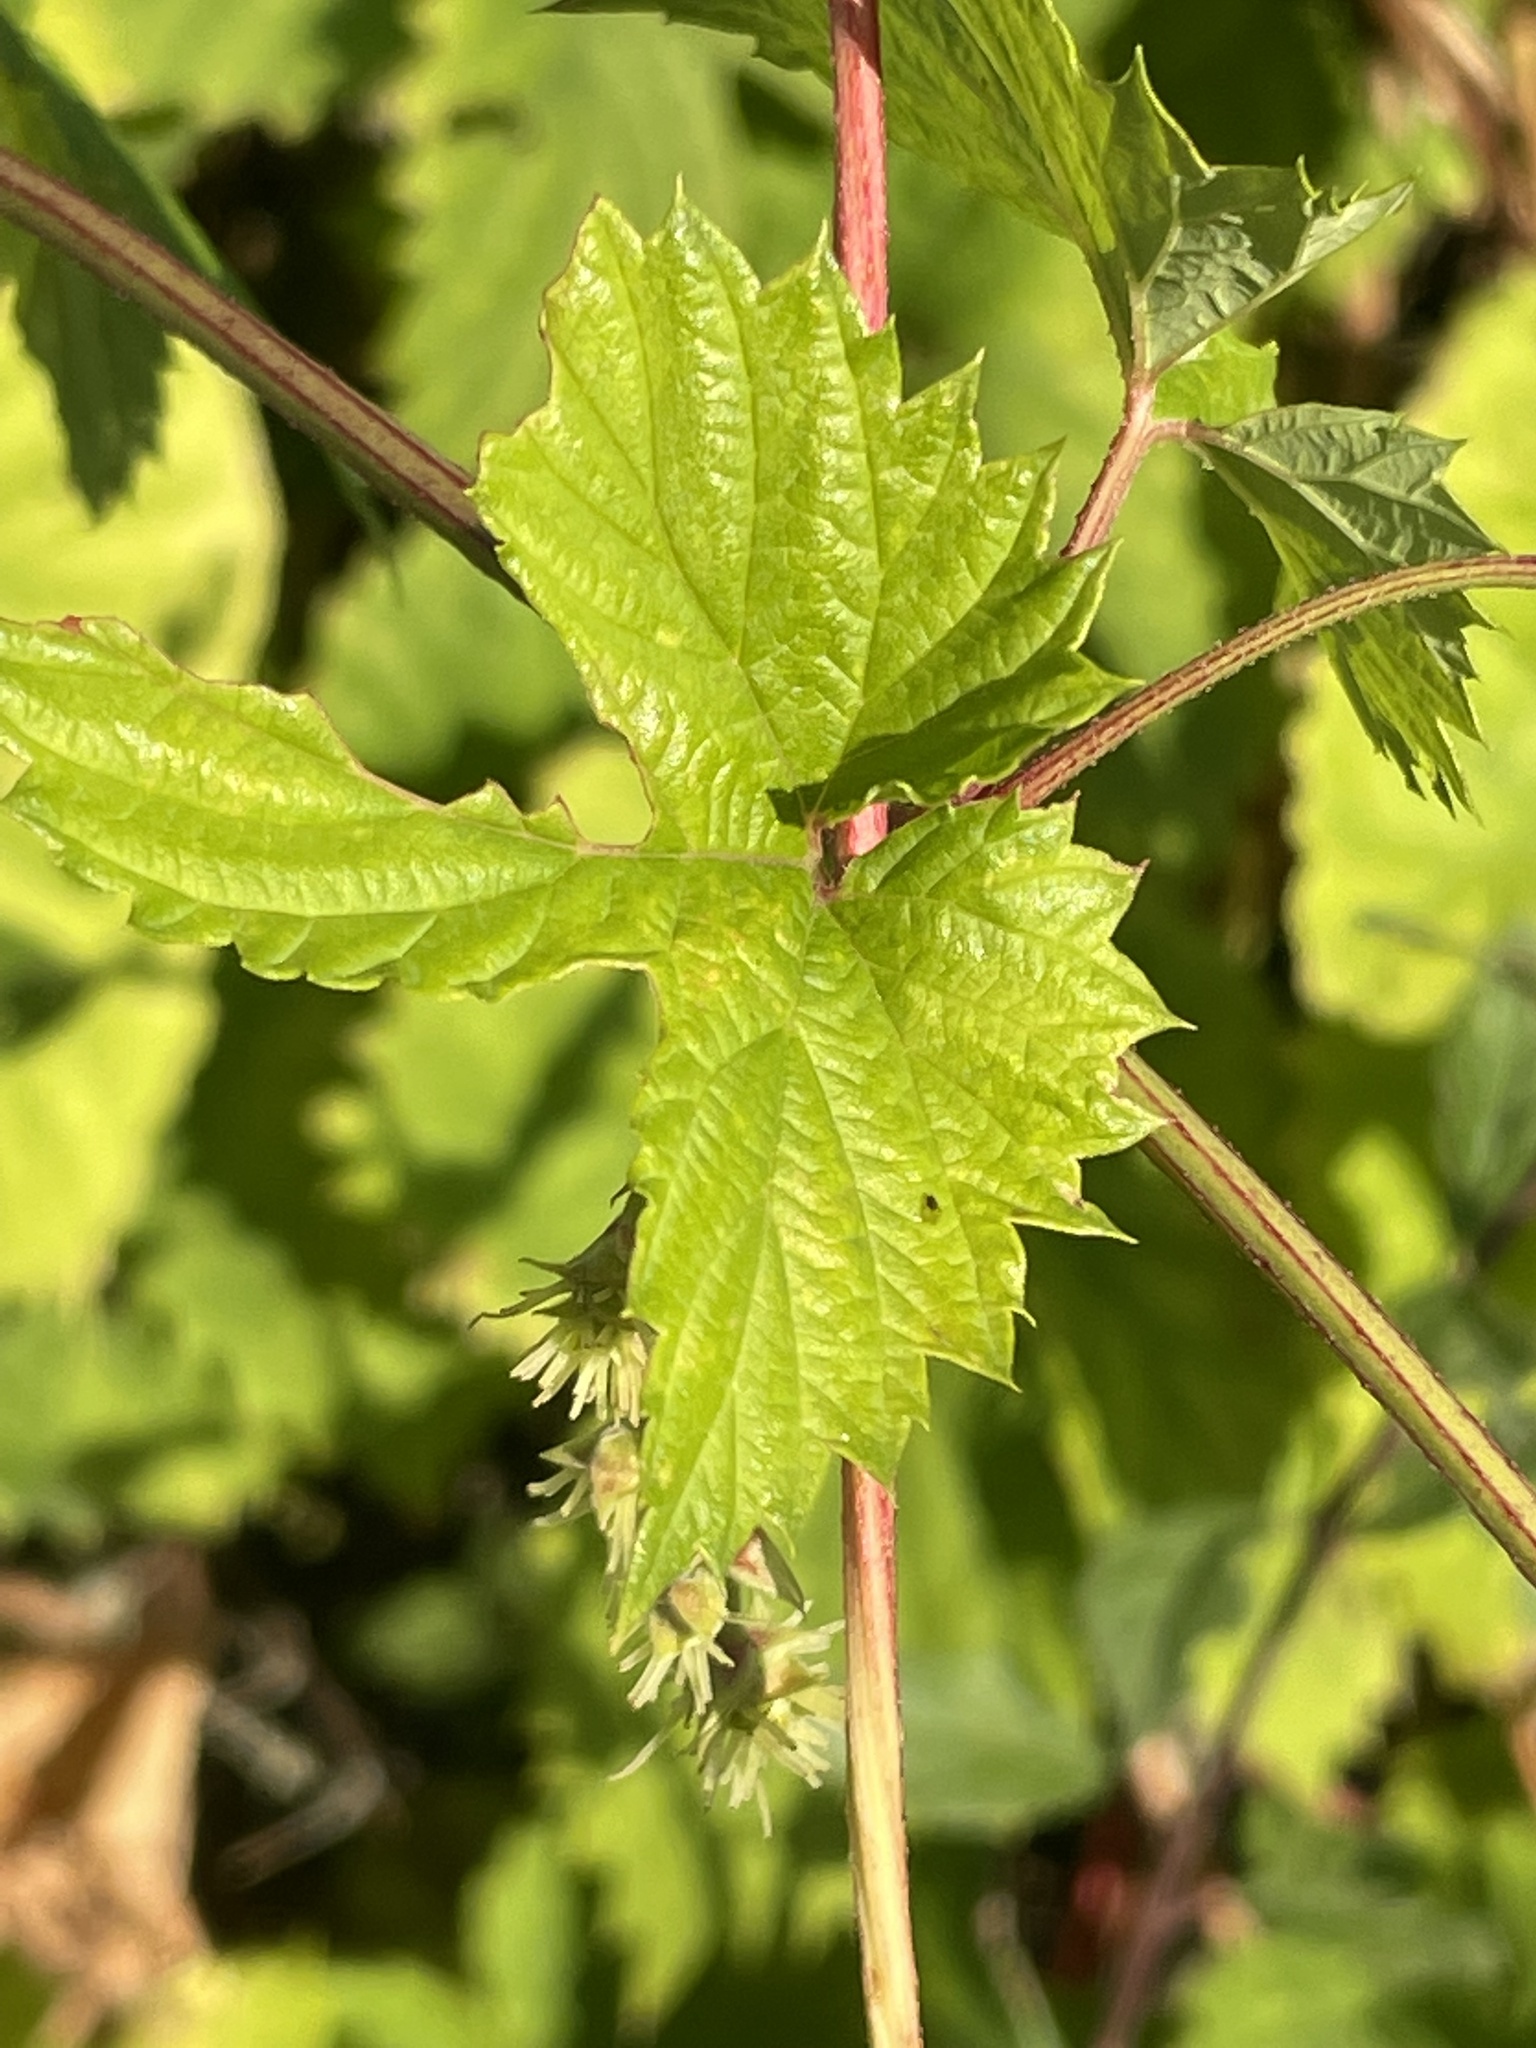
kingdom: Plantae
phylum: Tracheophyta
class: Magnoliopsida
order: Rosales
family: Cannabaceae
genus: Humulus
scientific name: Humulus lupulus
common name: Hop
